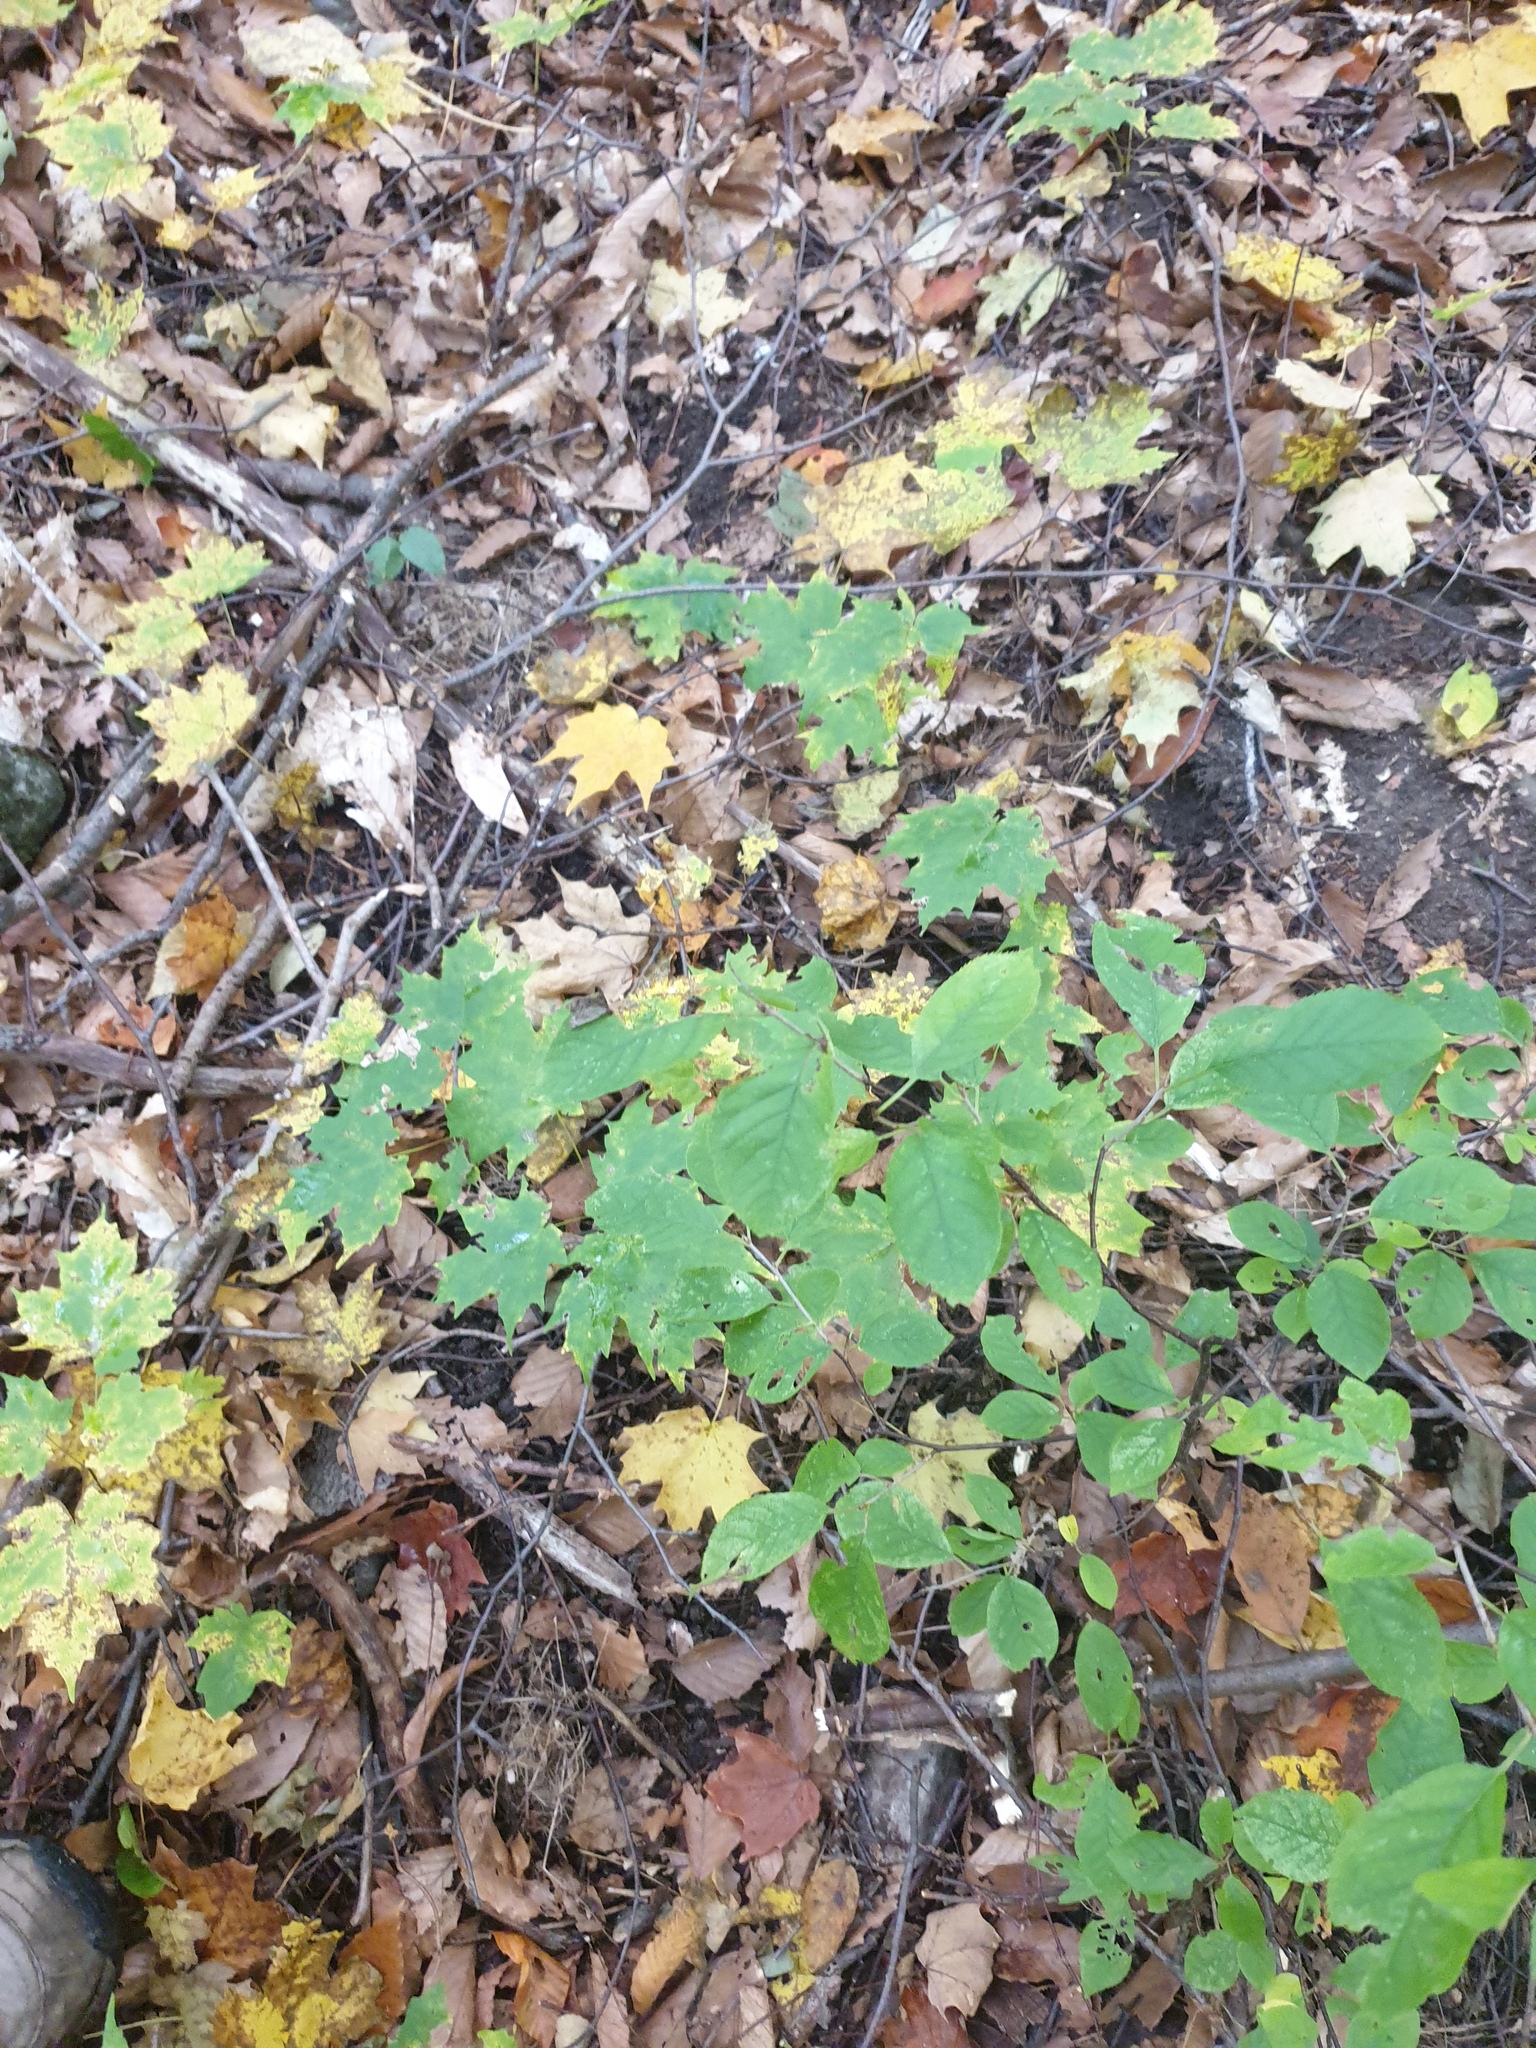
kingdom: Plantae
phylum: Tracheophyta
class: Magnoliopsida
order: Rosales
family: Rosaceae
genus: Prunus
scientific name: Prunus virginiana
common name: Chokecherry
